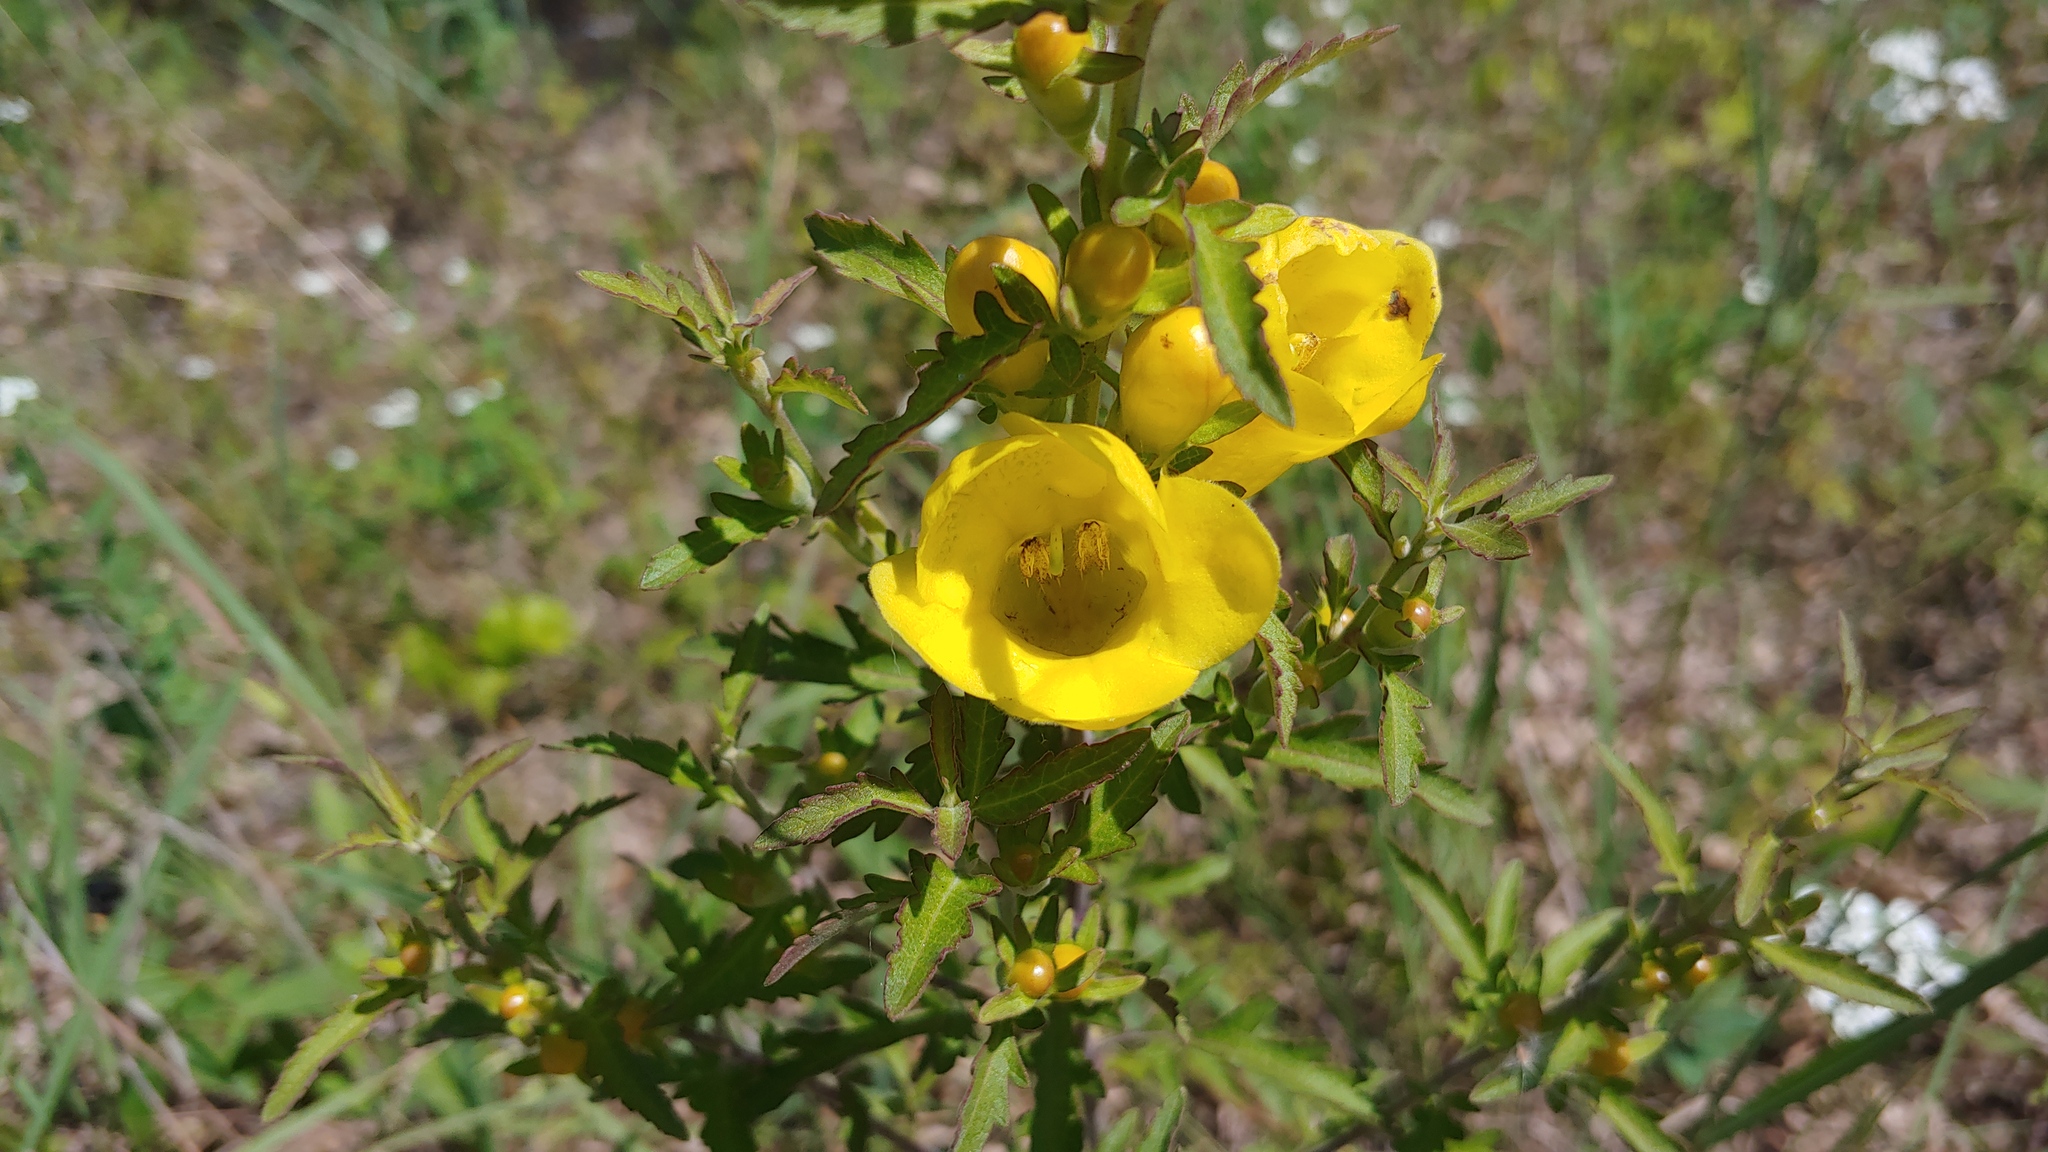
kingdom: Plantae
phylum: Tracheophyta
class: Magnoliopsida
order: Lamiales
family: Orobanchaceae
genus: Aureolaria
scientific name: Aureolaria grandiflora
